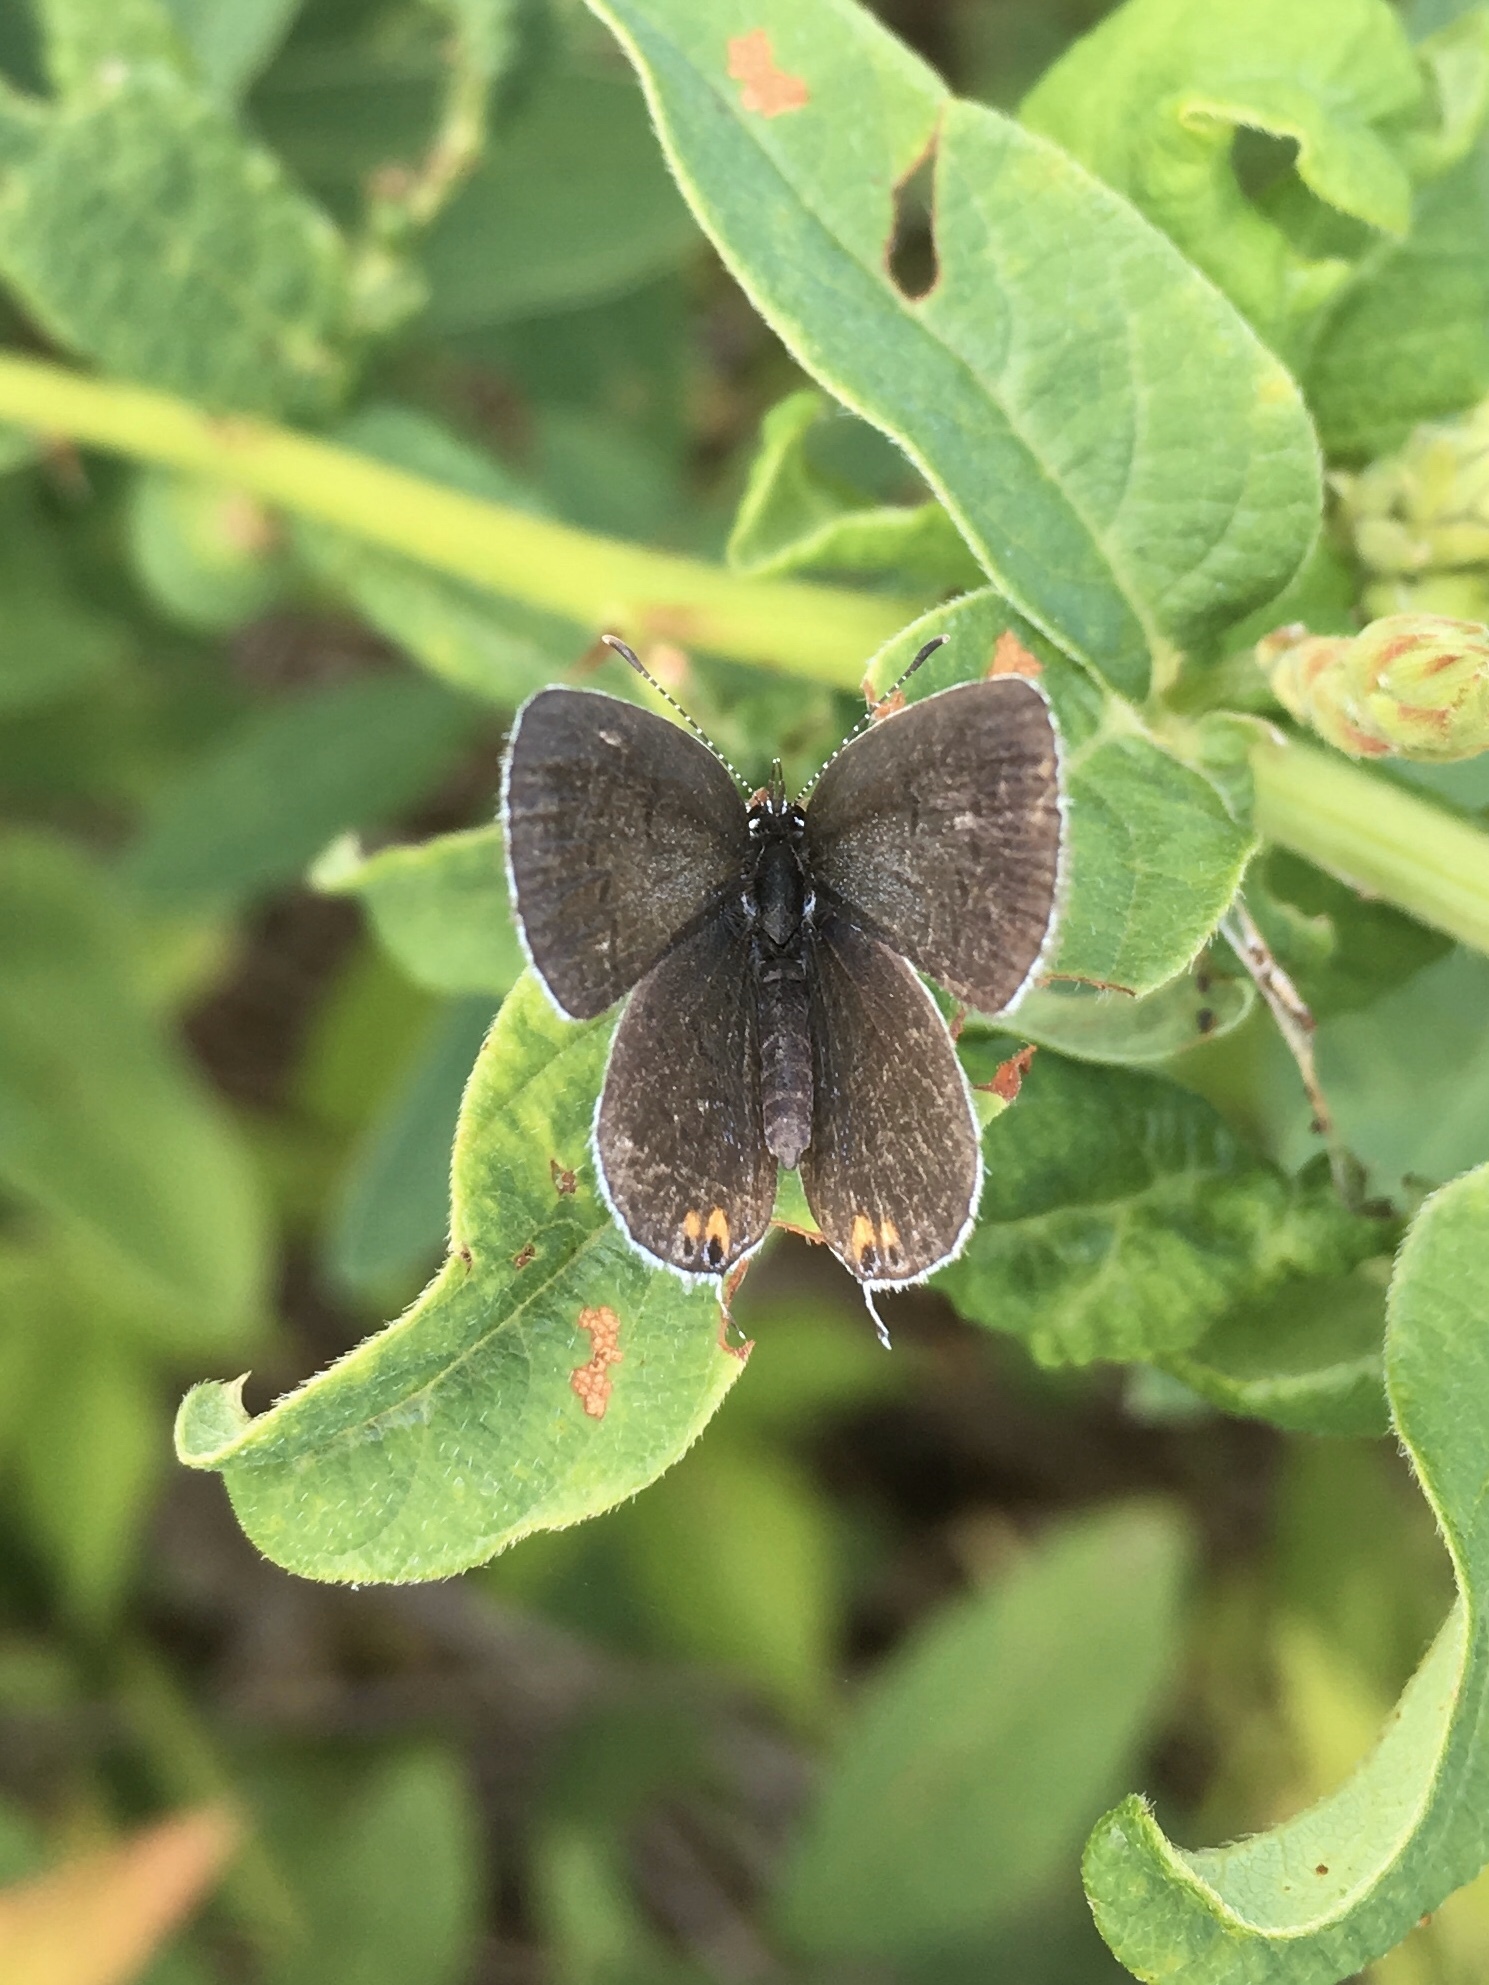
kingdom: Animalia
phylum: Arthropoda
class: Insecta
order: Lepidoptera
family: Lycaenidae
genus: Elkalyce
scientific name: Elkalyce comyntas
